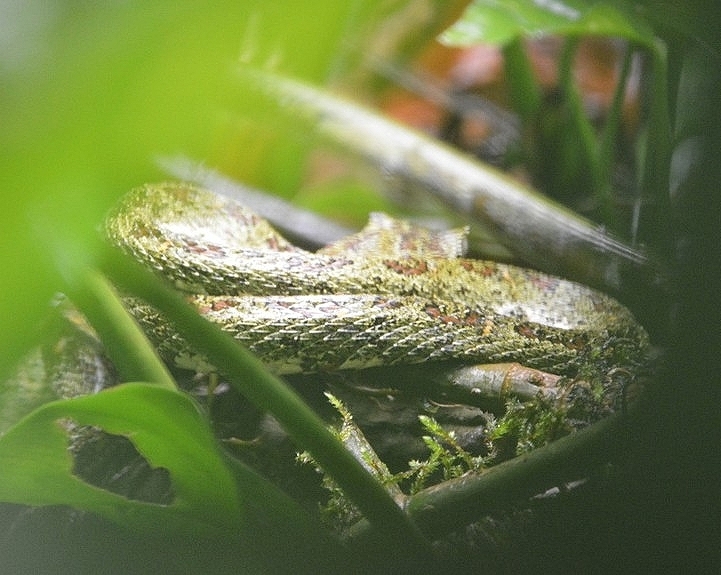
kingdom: Animalia
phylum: Chordata
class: Squamata
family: Viperidae
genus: Bothriechis
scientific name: Bothriechis schlegelii
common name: Eyelash viper
